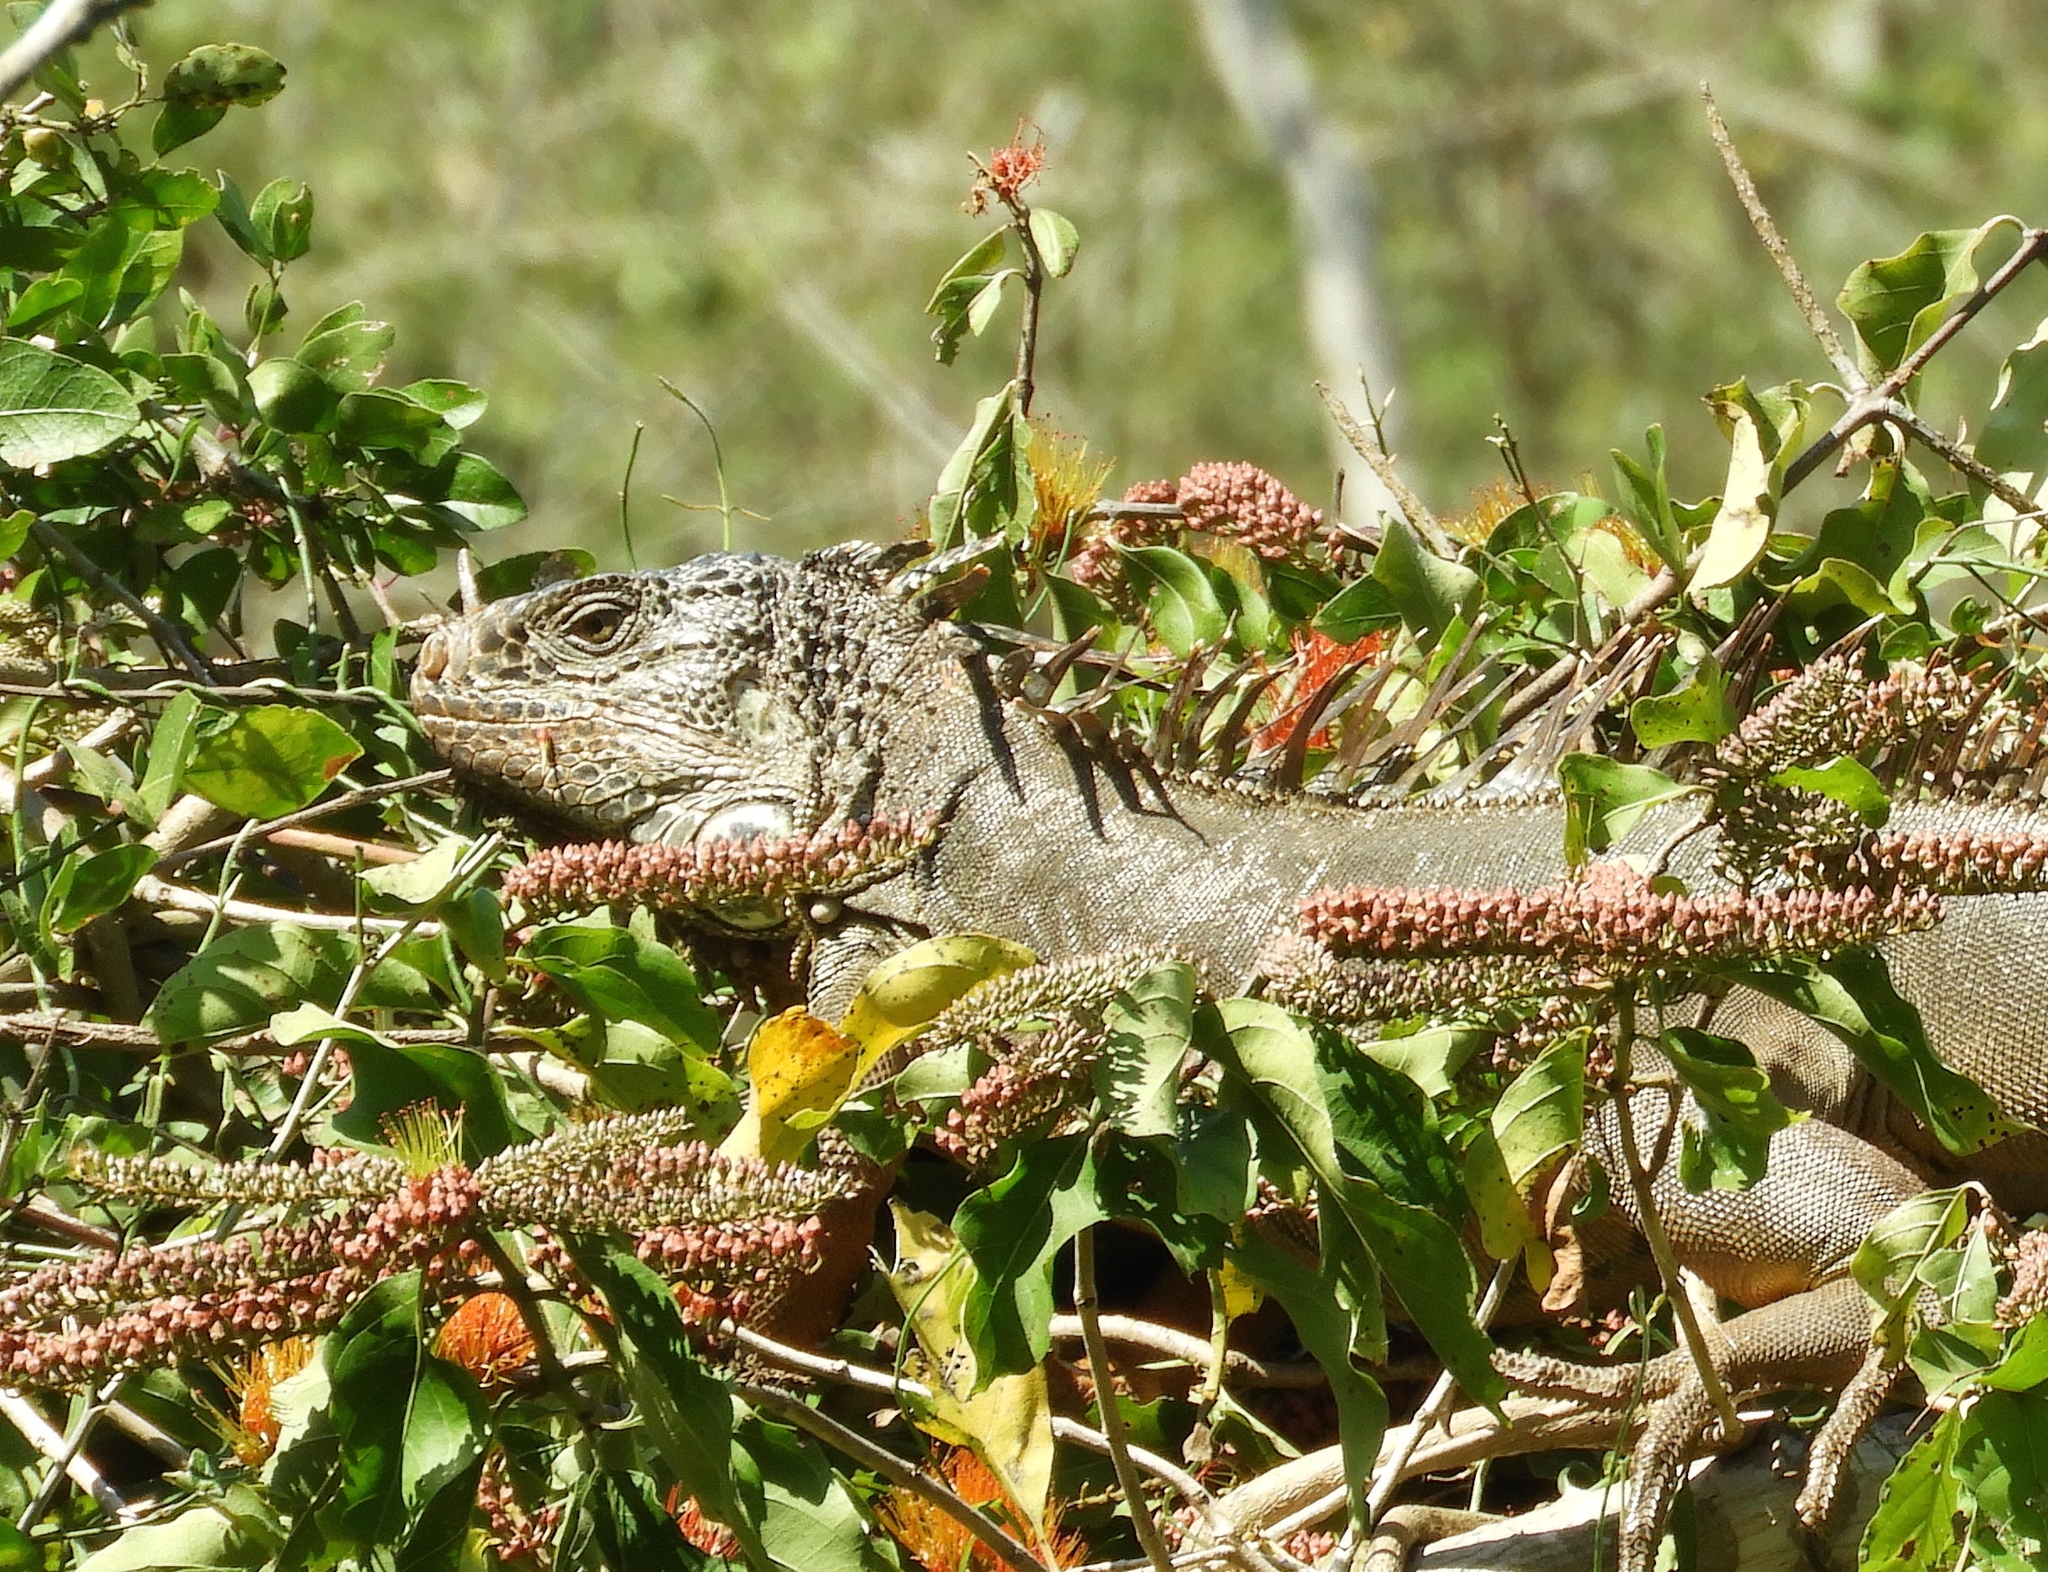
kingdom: Animalia
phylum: Chordata
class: Squamata
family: Iguanidae
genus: Iguana
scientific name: Iguana iguana
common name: Green iguana
